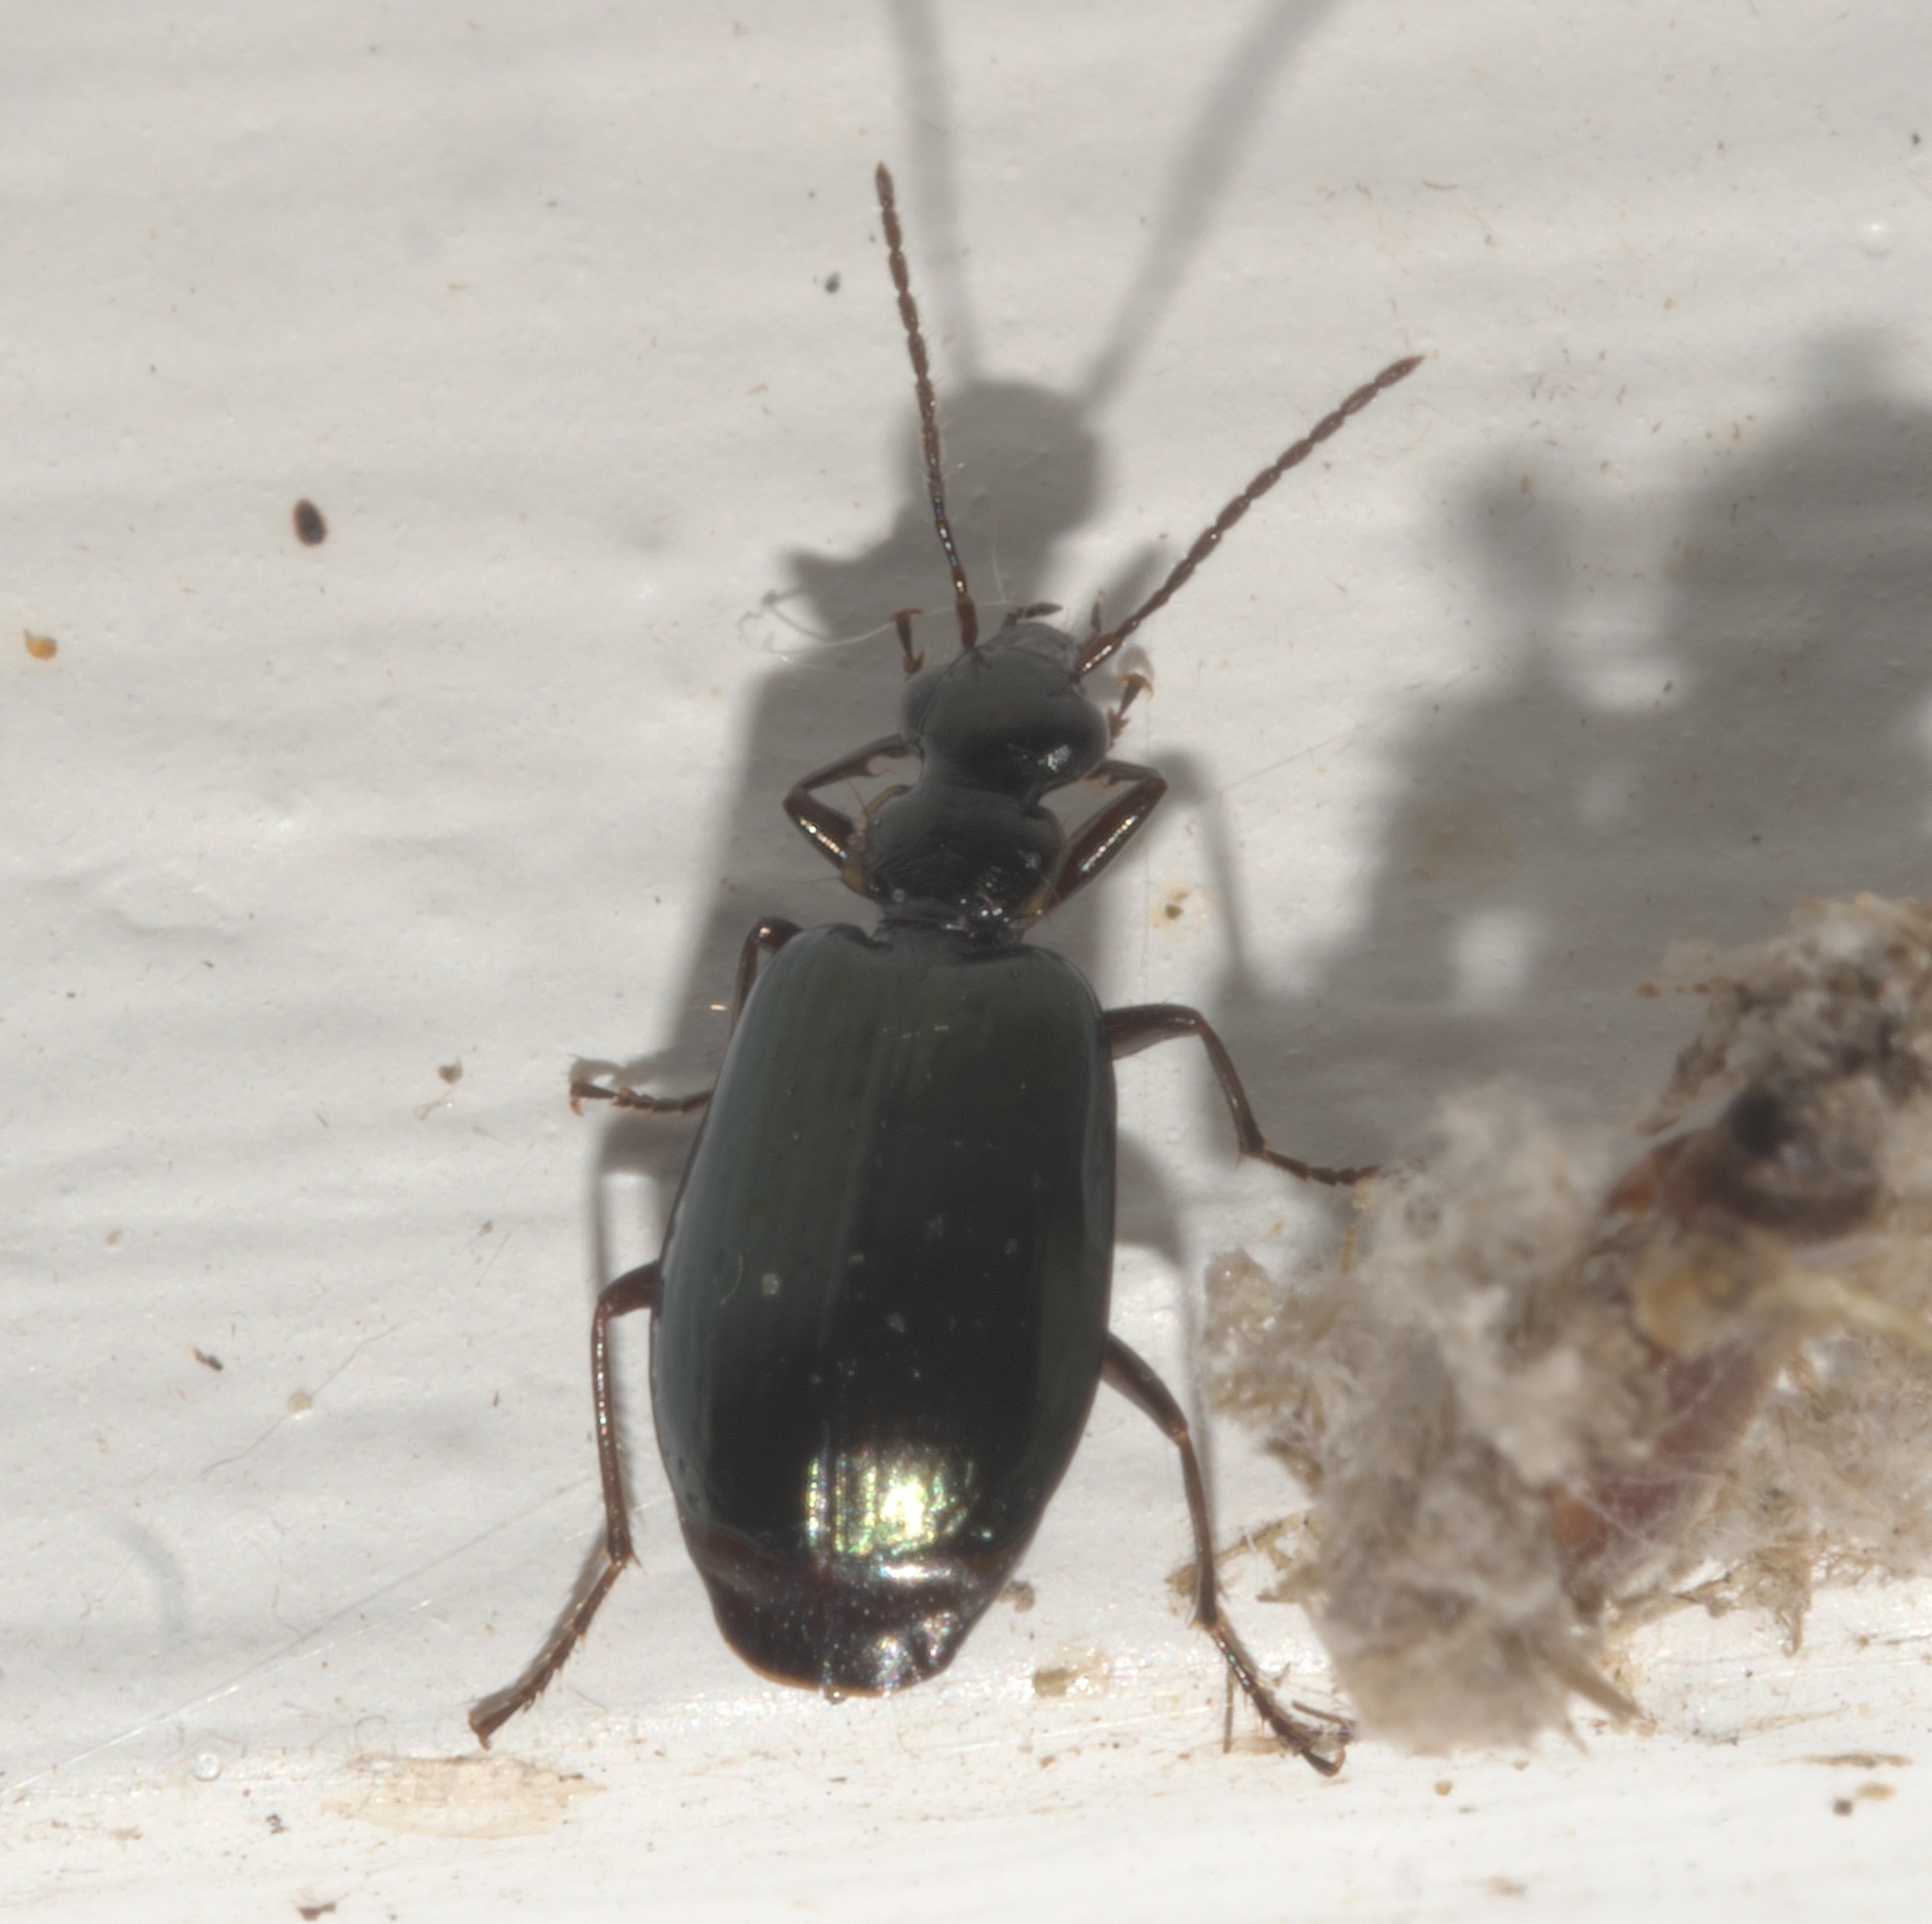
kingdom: Animalia
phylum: Arthropoda
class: Insecta
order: Coleoptera
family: Carabidae
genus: Lebia
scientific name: Lebia viridis
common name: Flower lebia beetle
